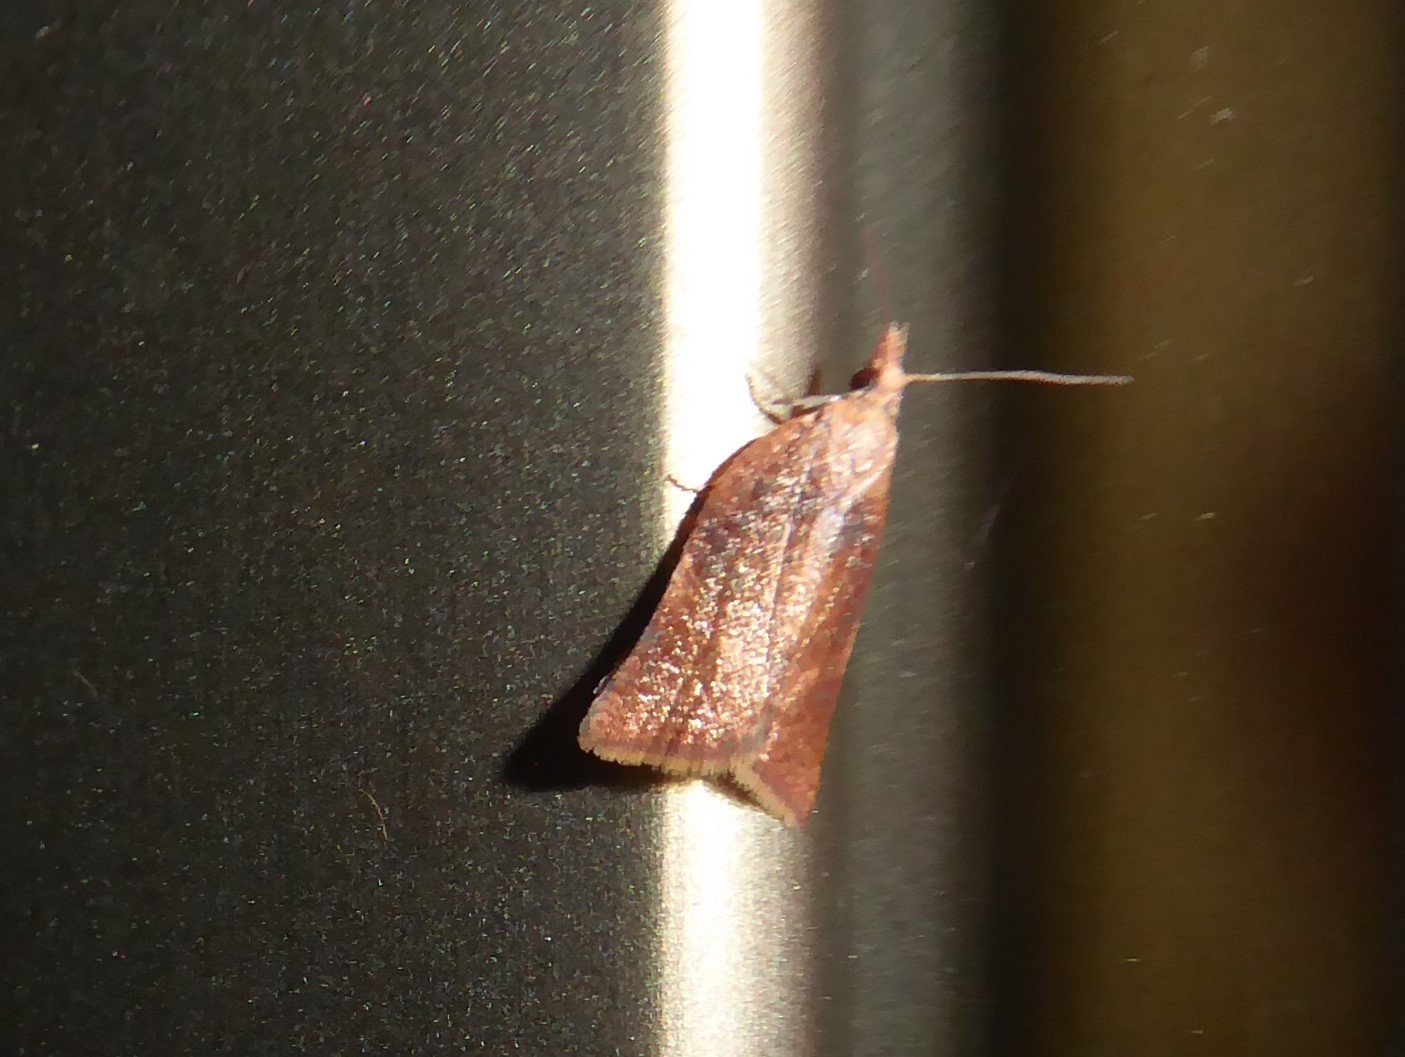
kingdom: Animalia
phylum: Arthropoda
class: Insecta
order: Lepidoptera
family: Tortricidae
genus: Catamacta
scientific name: Catamacta gavisana
